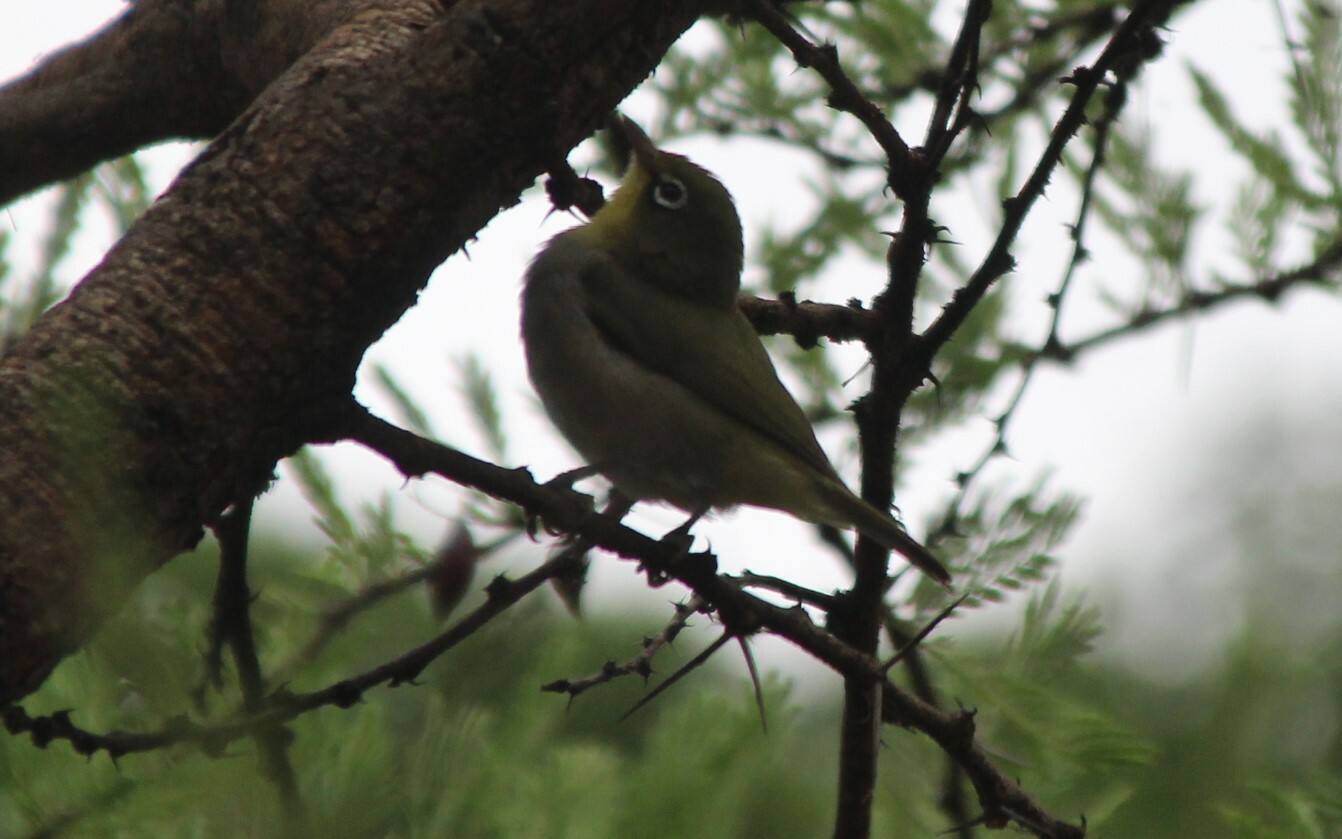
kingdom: Animalia
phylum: Chordata
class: Aves
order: Passeriformes
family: Zosteropidae
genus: Zosterops
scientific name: Zosterops abyssinicus
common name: Abyssinian white-eye
